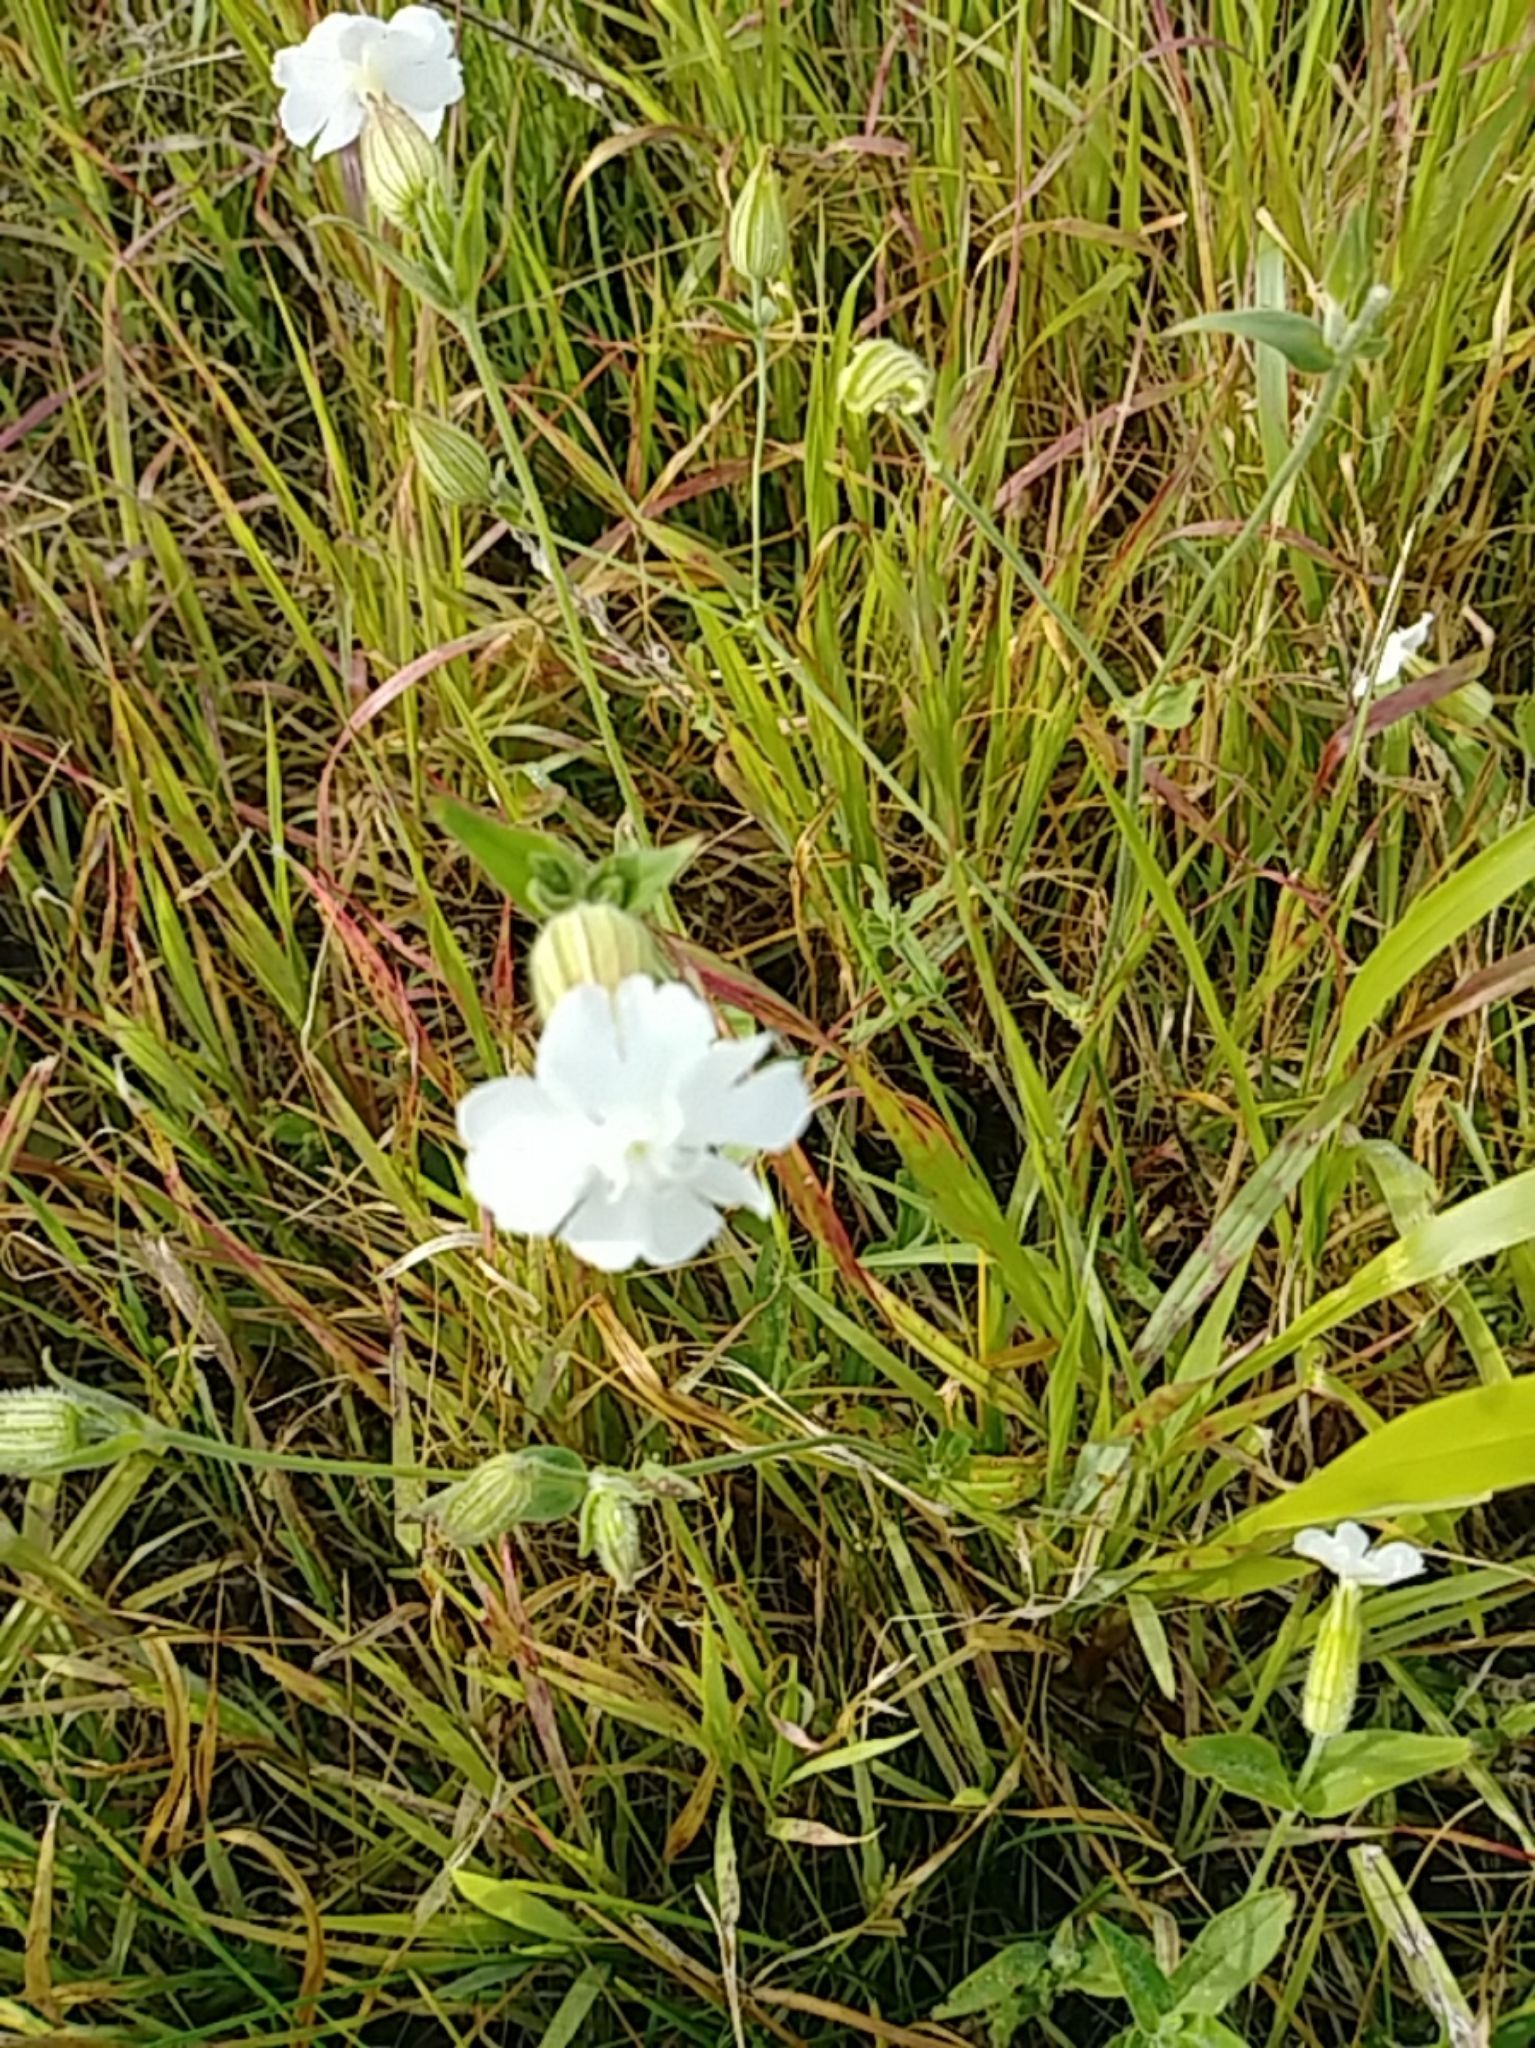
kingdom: Plantae
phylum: Tracheophyta
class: Magnoliopsida
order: Caryophyllales
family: Caryophyllaceae
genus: Silene
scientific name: Silene latifolia
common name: White campion
